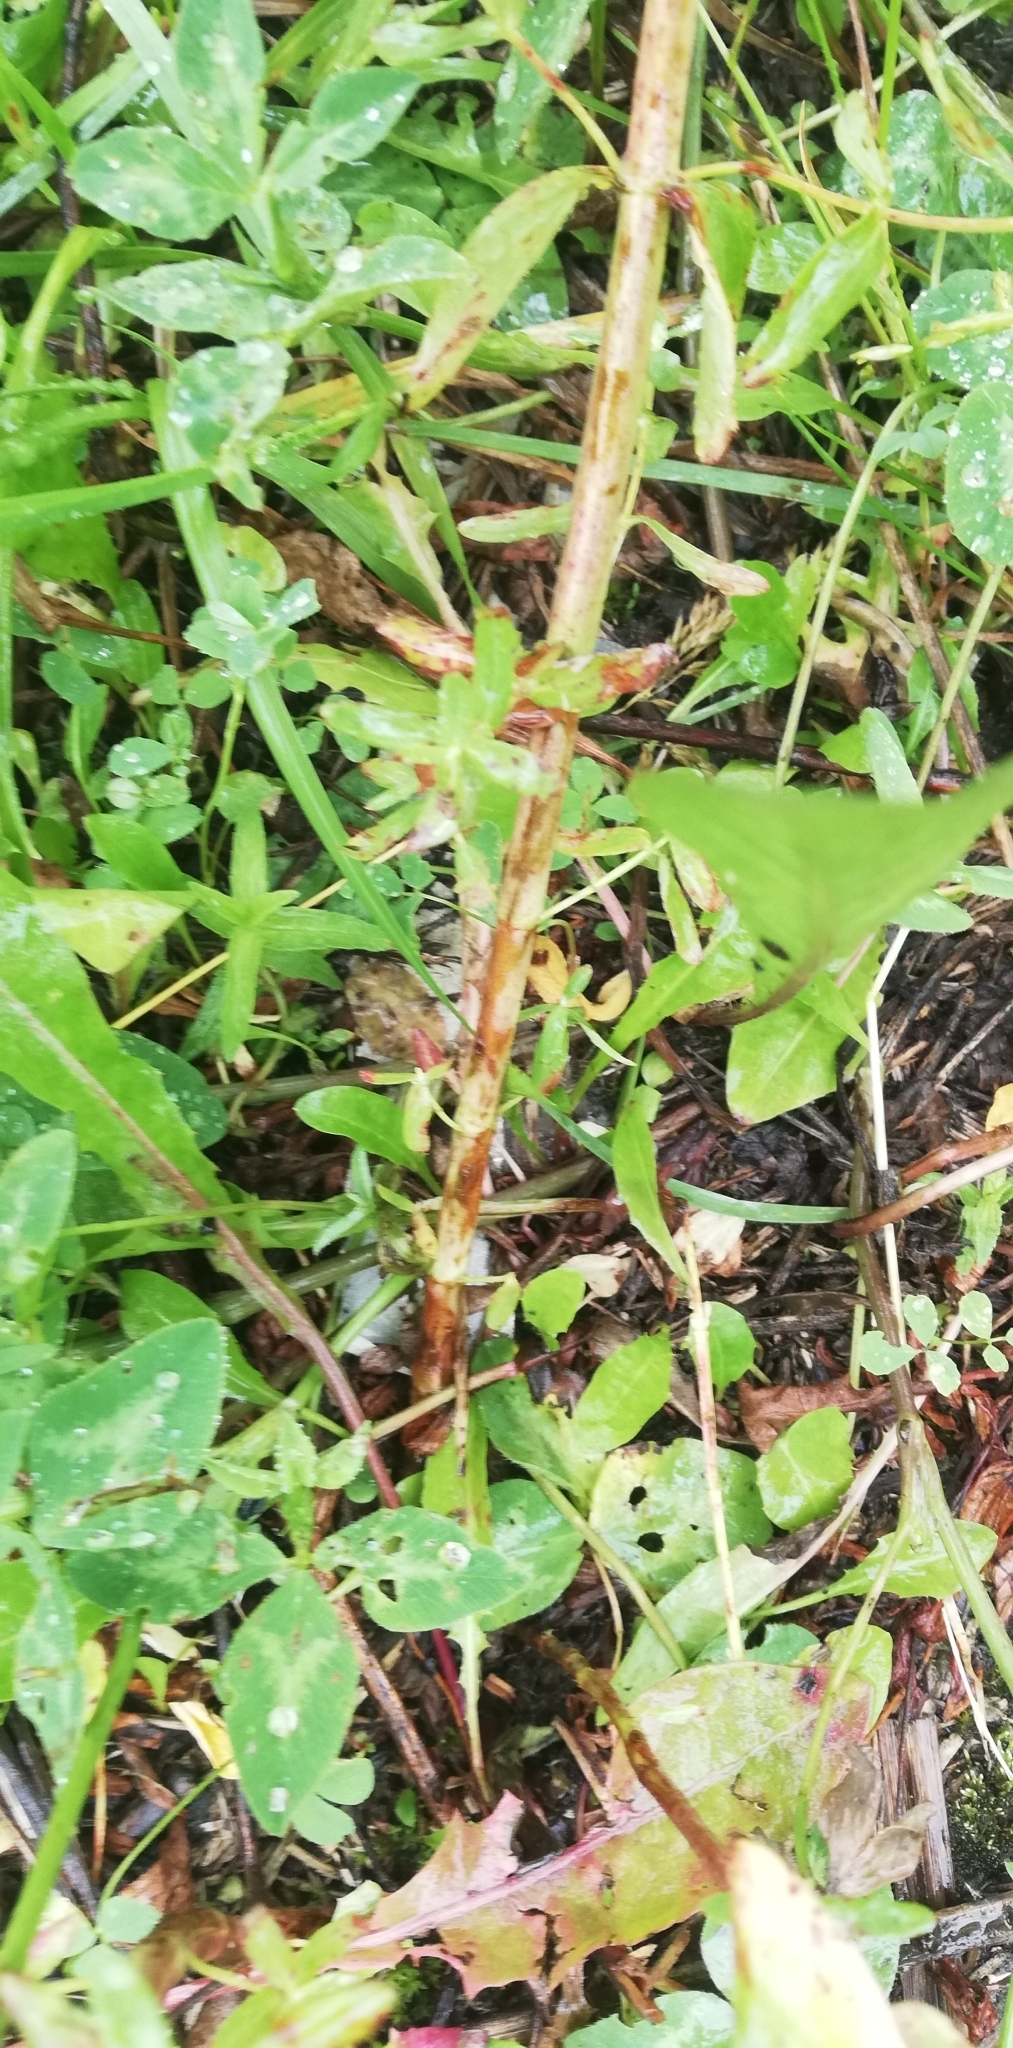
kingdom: Plantae
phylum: Tracheophyta
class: Magnoliopsida
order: Malpighiales
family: Hypericaceae
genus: Hypericum
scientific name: Hypericum perforatum
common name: Common st. johnswort
